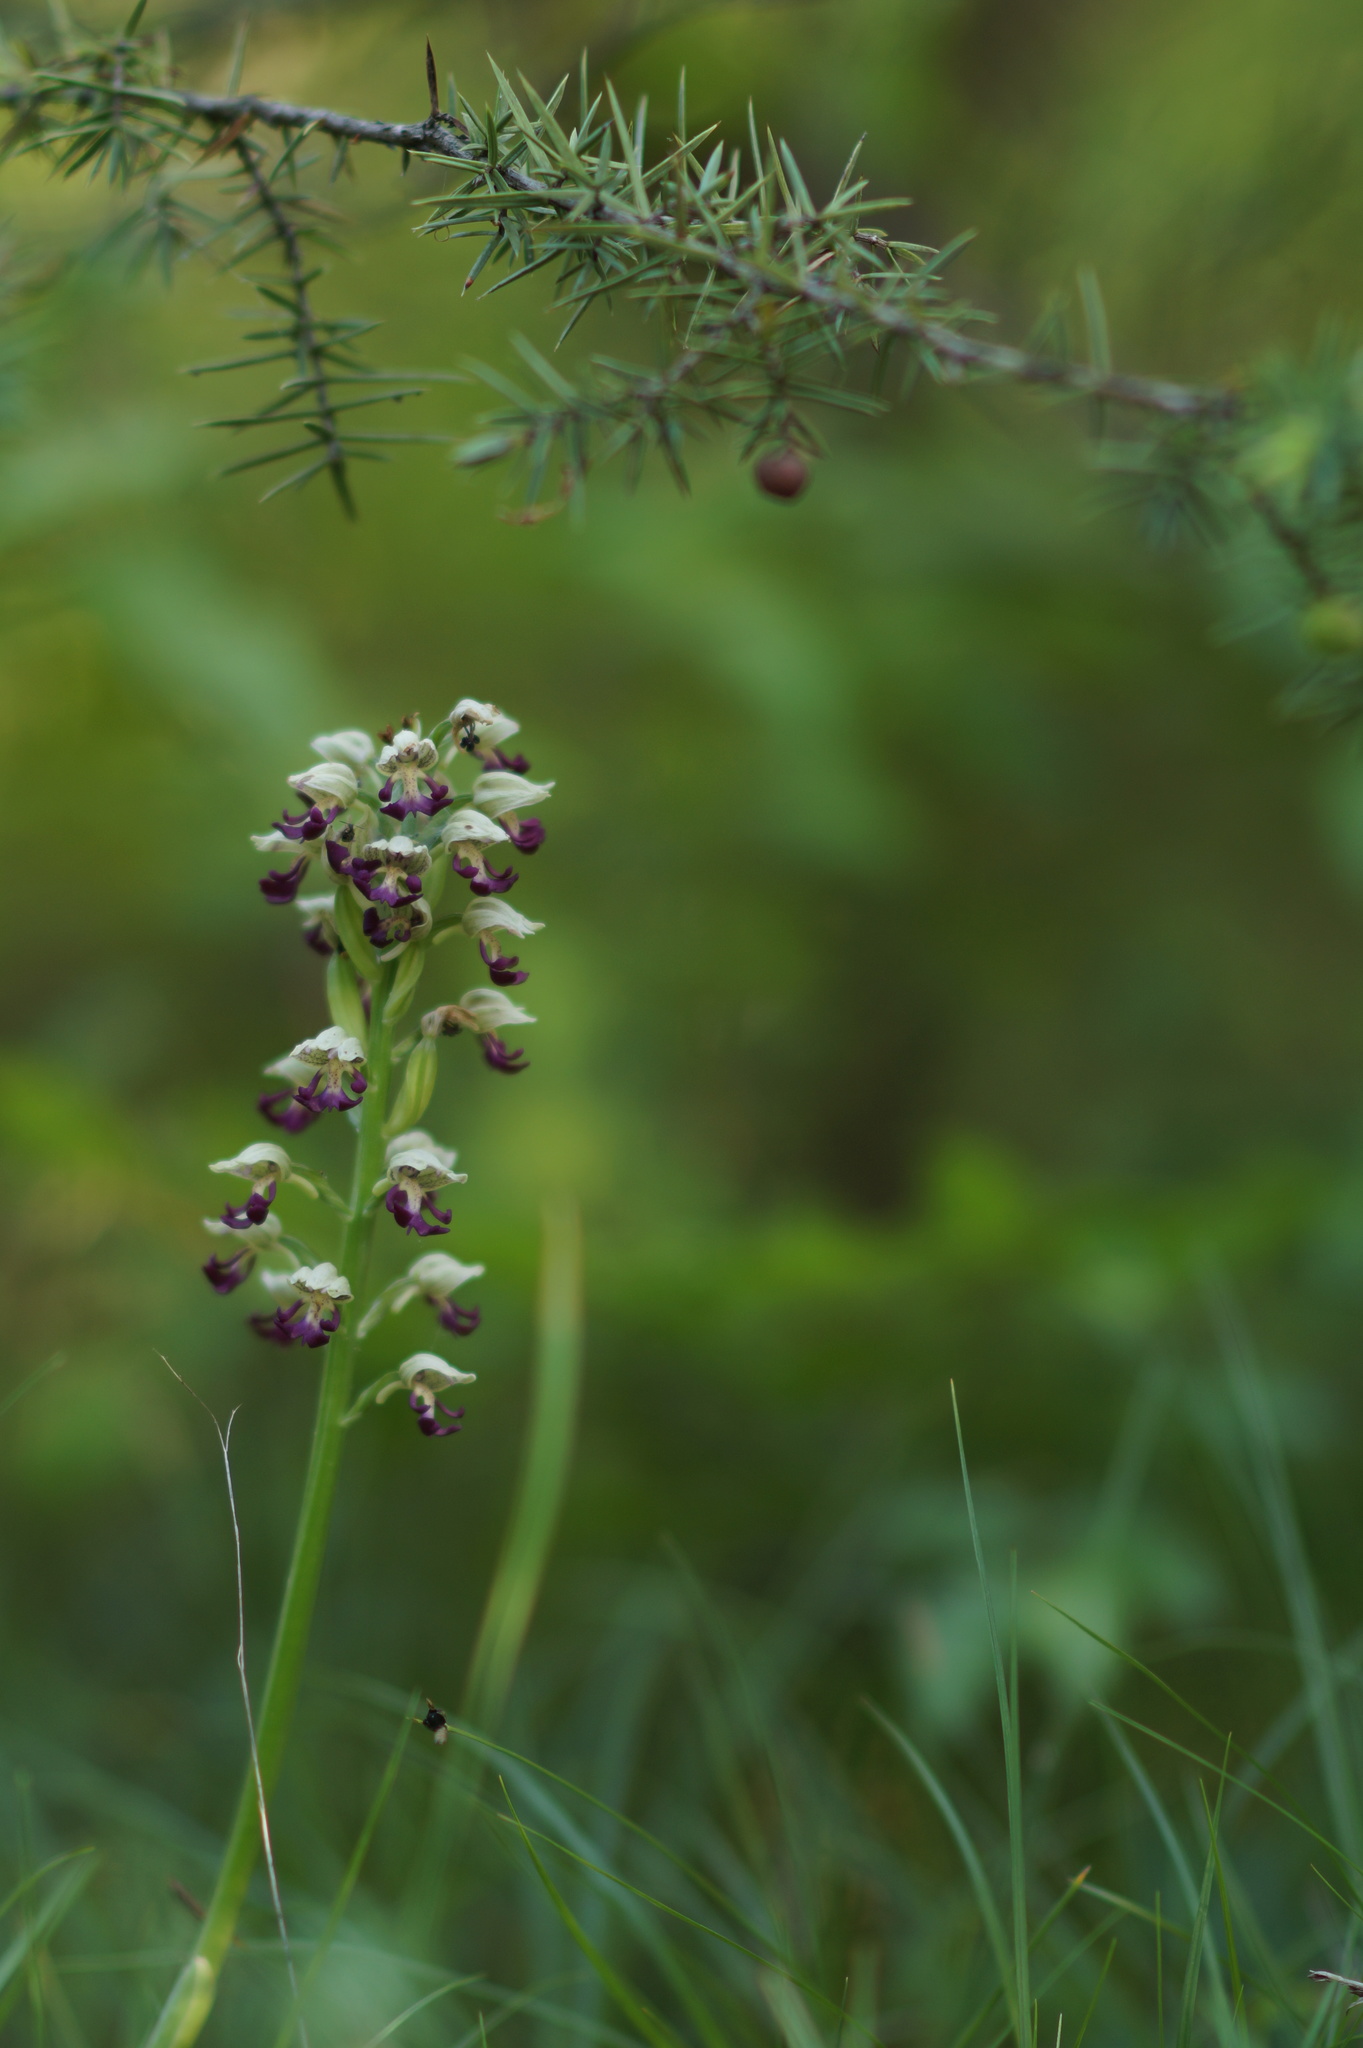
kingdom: Plantae
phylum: Tracheophyta
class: Liliopsida
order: Asparagales
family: Orchidaceae
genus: Orchis
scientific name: Orchis calliantha
